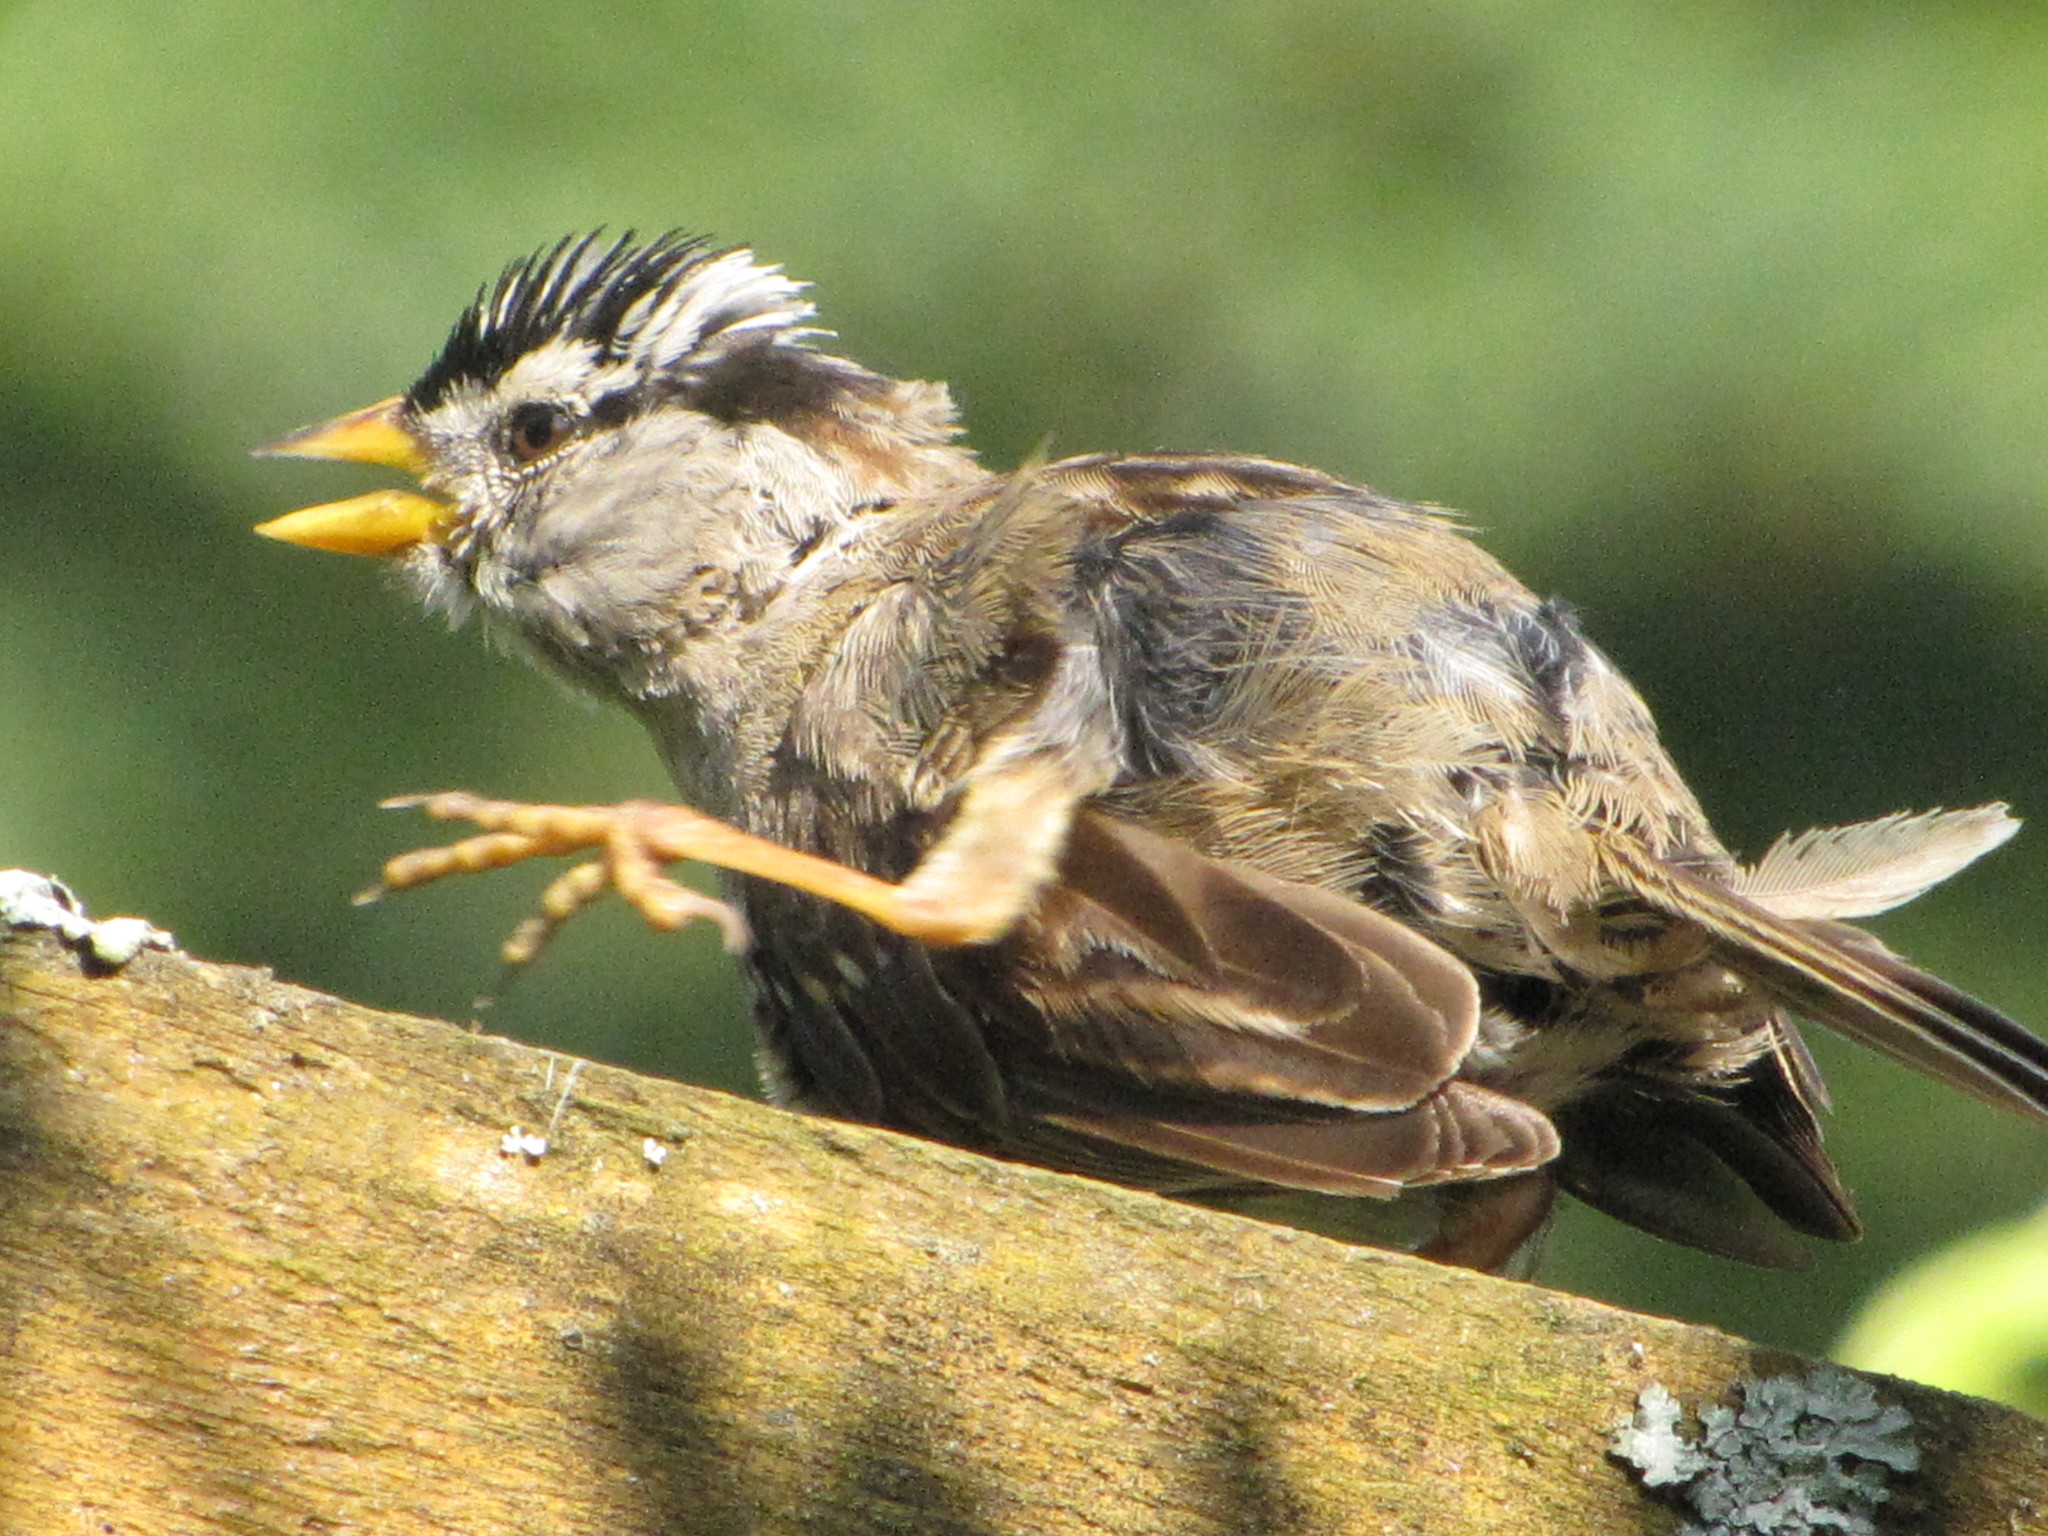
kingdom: Animalia
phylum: Chordata
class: Aves
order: Passeriformes
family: Passerellidae
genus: Zonotrichia
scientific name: Zonotrichia leucophrys
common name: White-crowned sparrow
